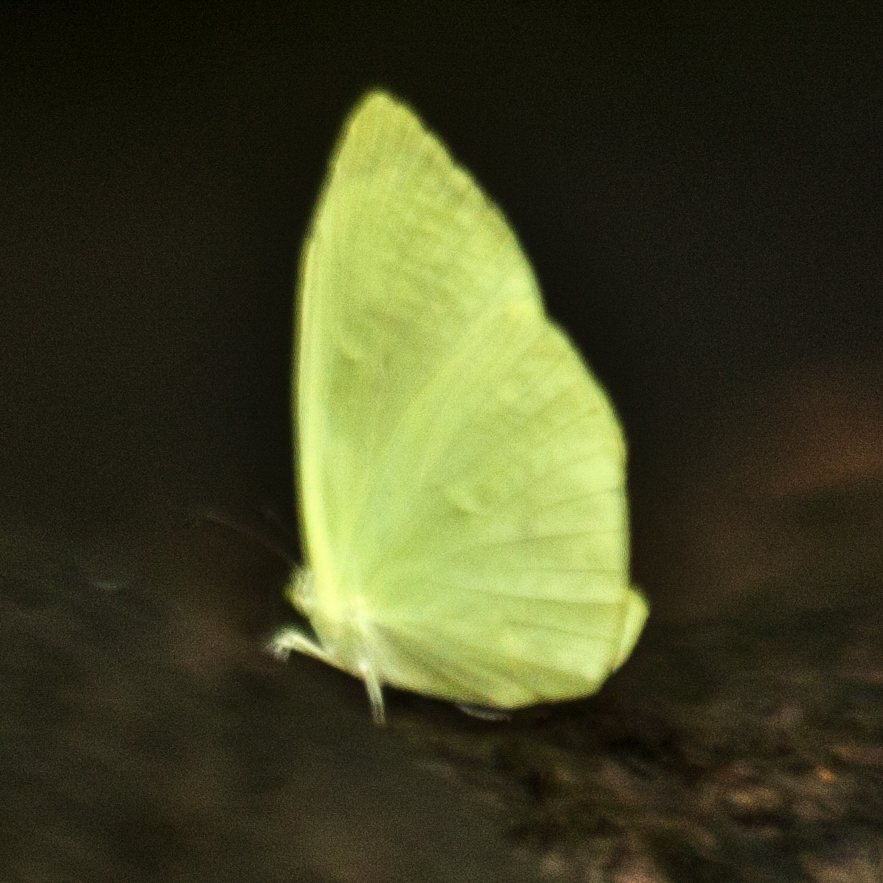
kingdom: Animalia
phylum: Arthropoda
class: Insecta
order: Lepidoptera
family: Pieridae
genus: Gandaca
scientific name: Gandaca harina
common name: Tree yellow
